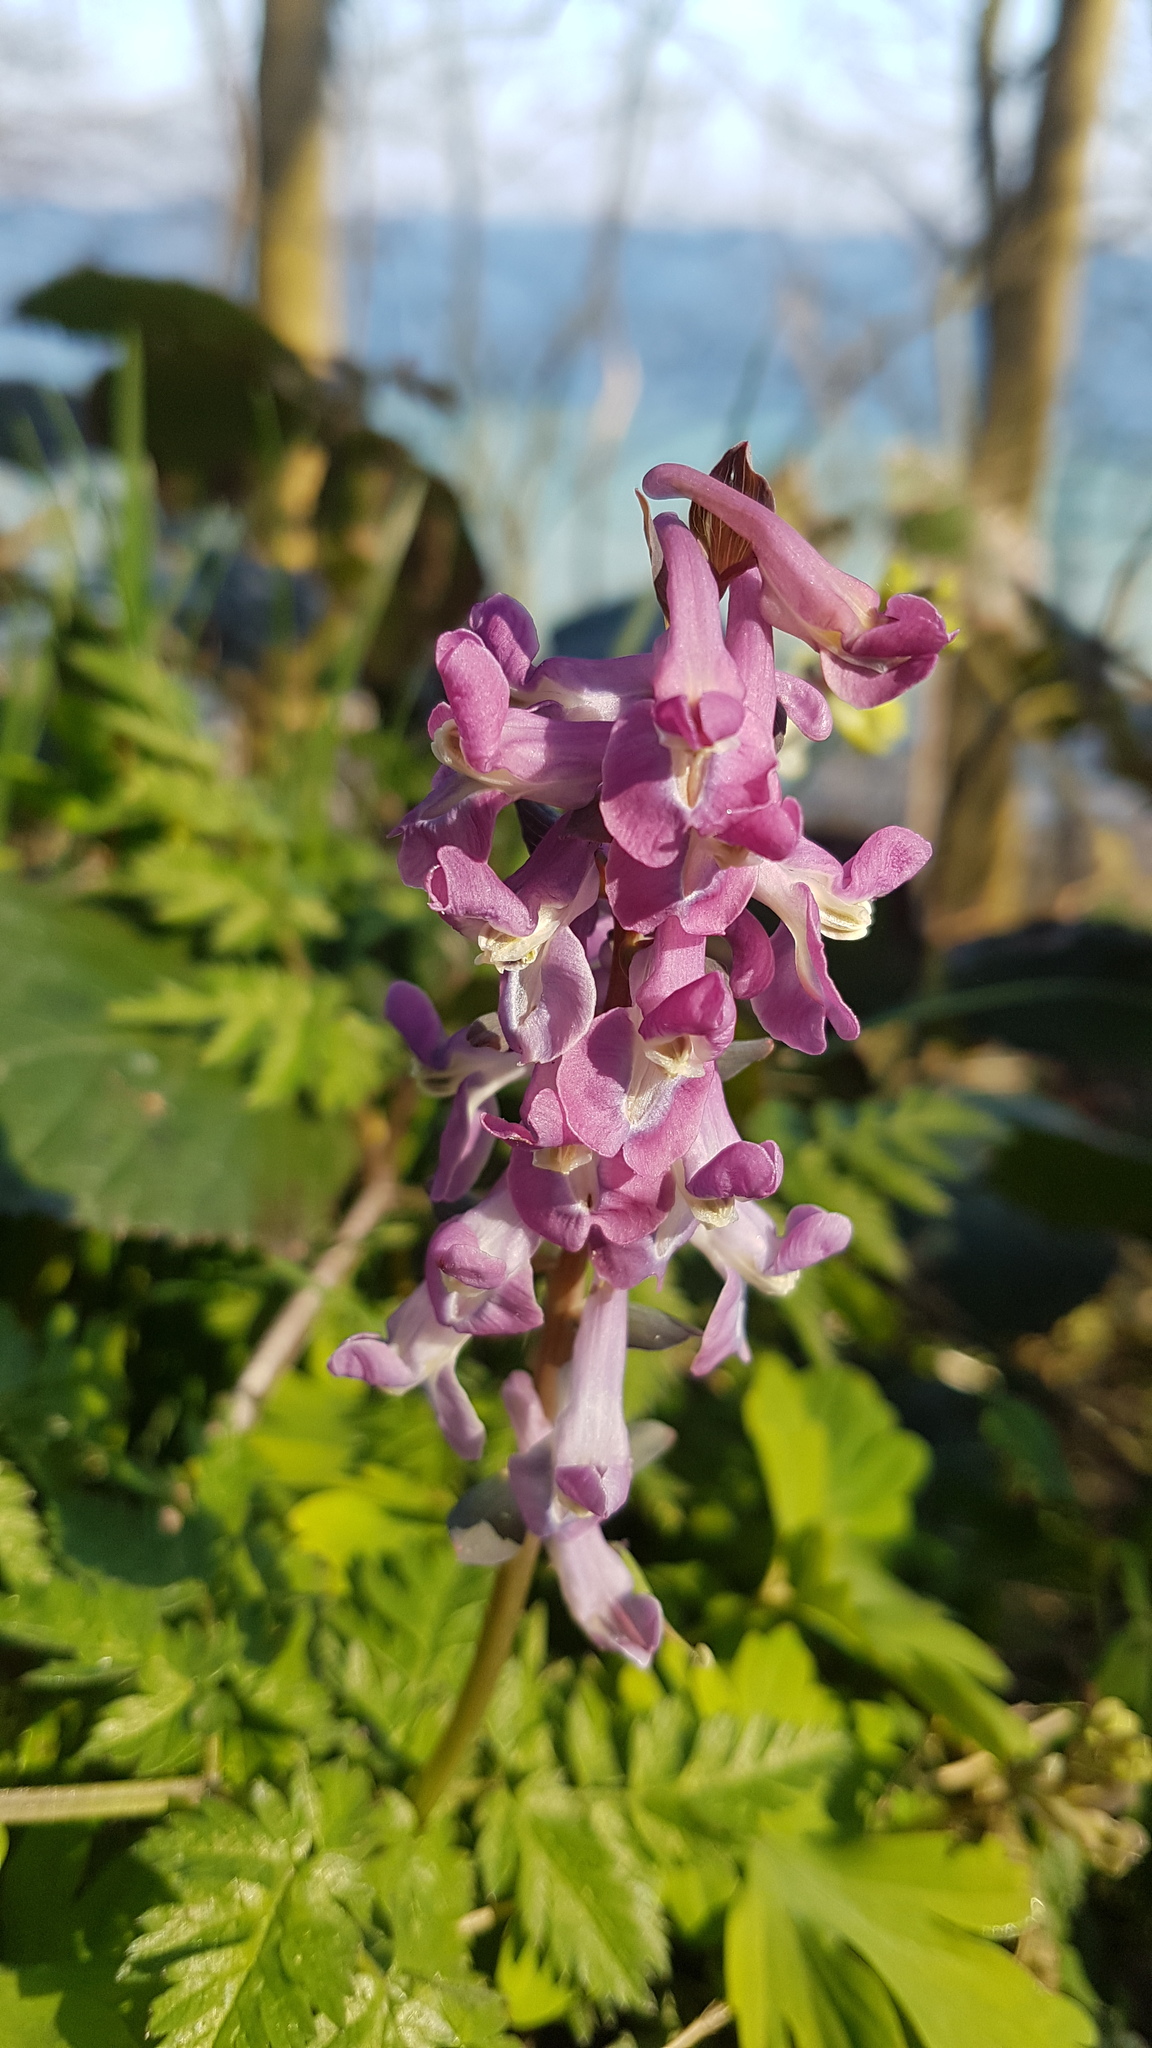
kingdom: Plantae
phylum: Tracheophyta
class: Magnoliopsida
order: Ranunculales
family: Papaveraceae
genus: Corydalis
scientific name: Corydalis cava
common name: Hollowroot
